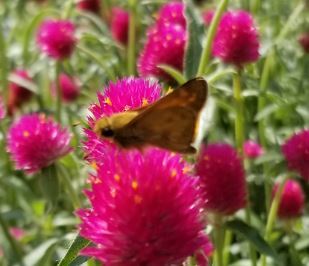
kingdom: Animalia
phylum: Arthropoda
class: Insecta
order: Lepidoptera
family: Hesperiidae
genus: Atalopedes
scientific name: Atalopedes
